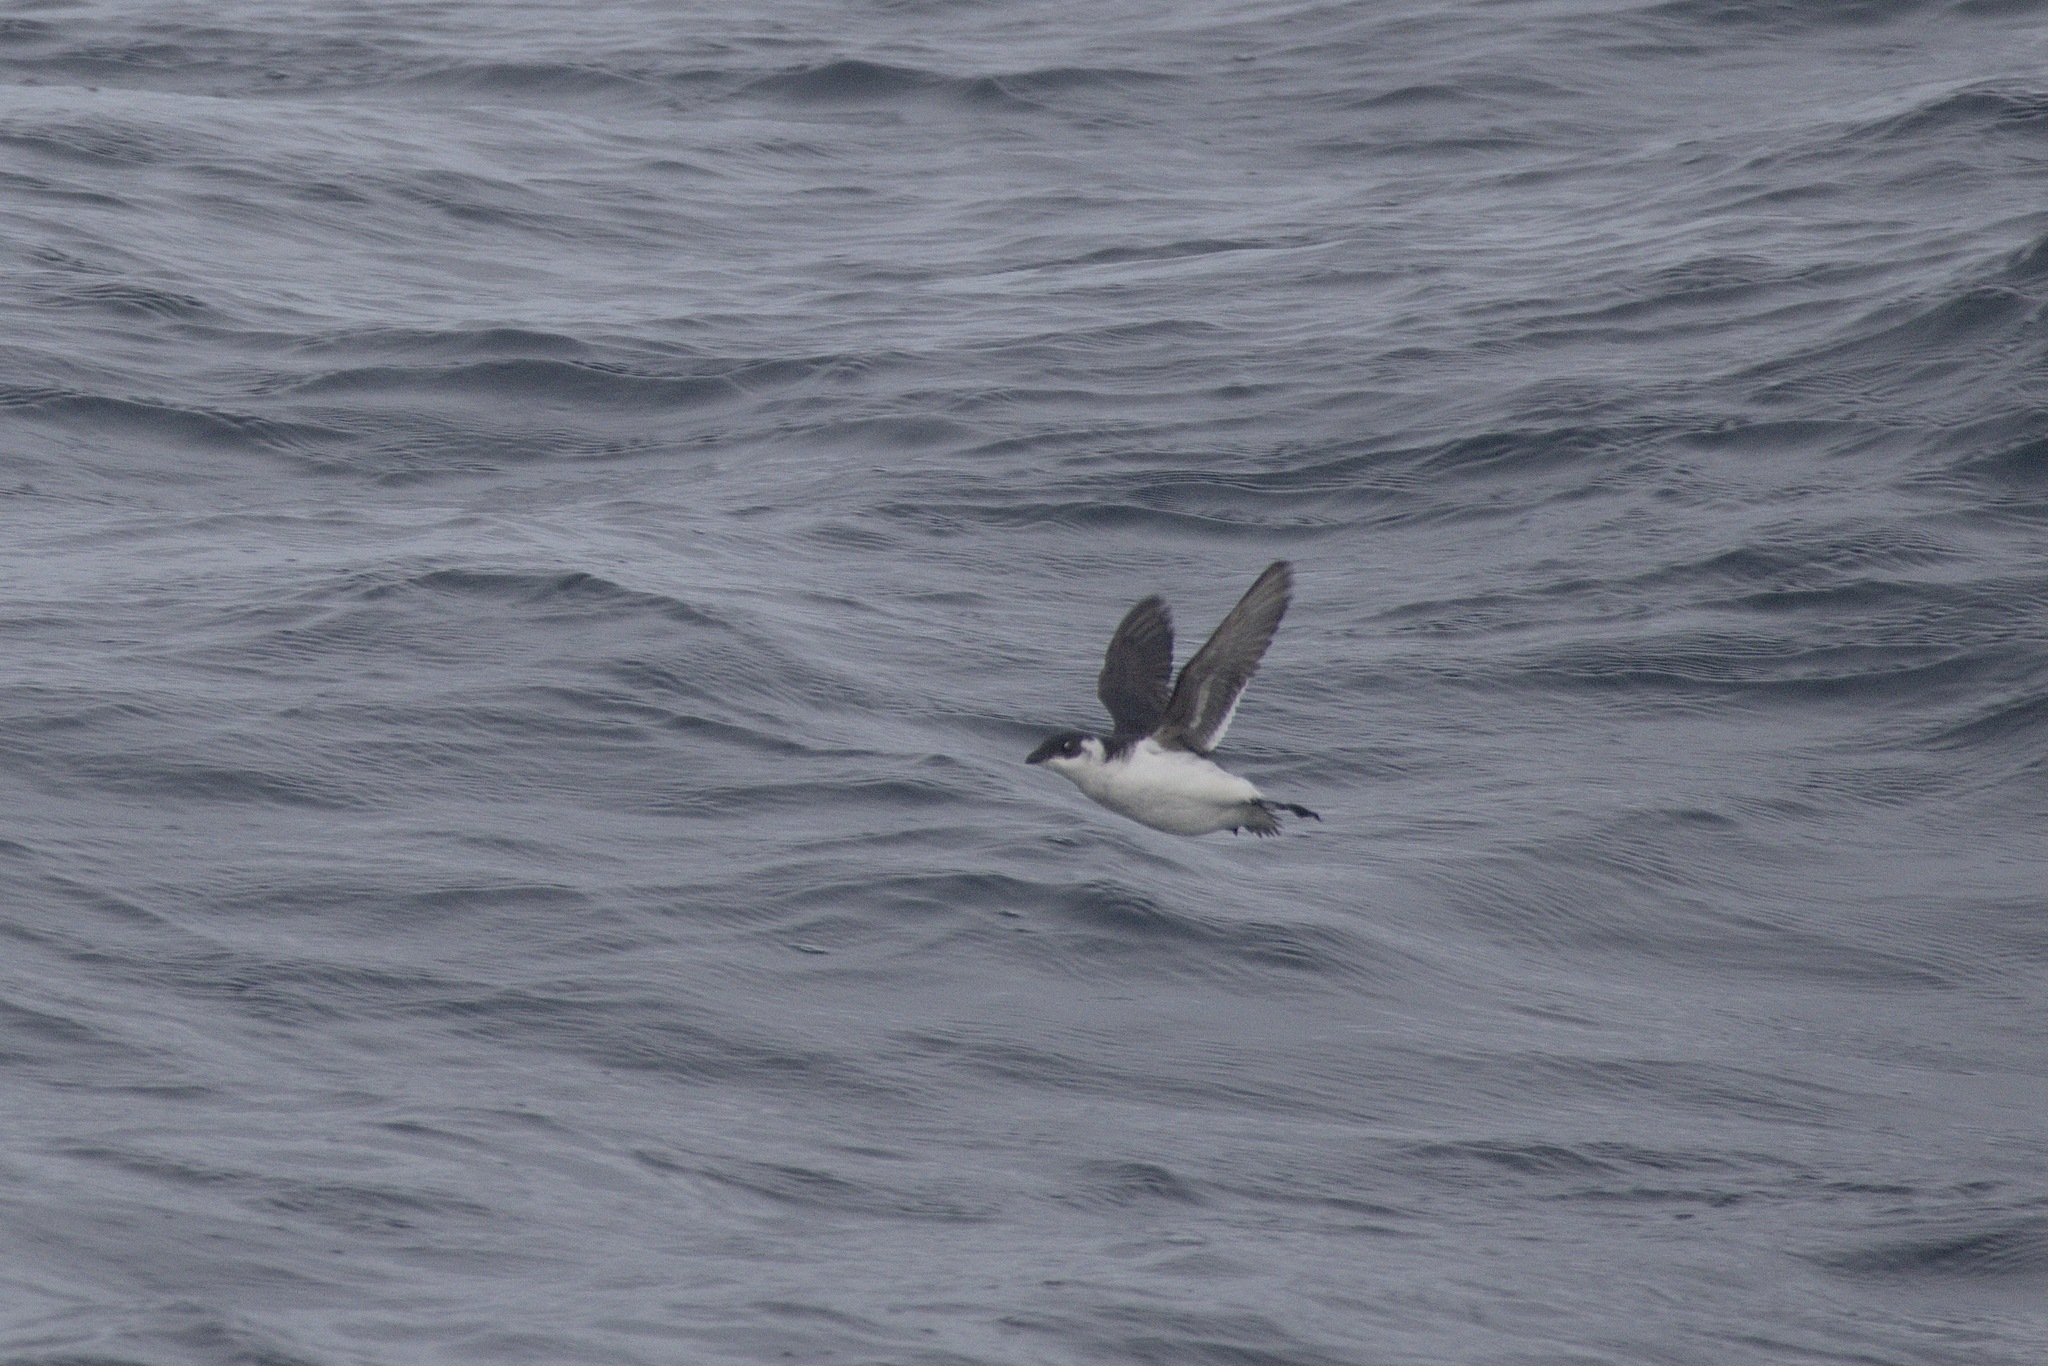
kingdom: Animalia
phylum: Chordata
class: Aves
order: Charadriiformes
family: Alcidae
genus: Alle
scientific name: Alle alle
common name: Little auk
